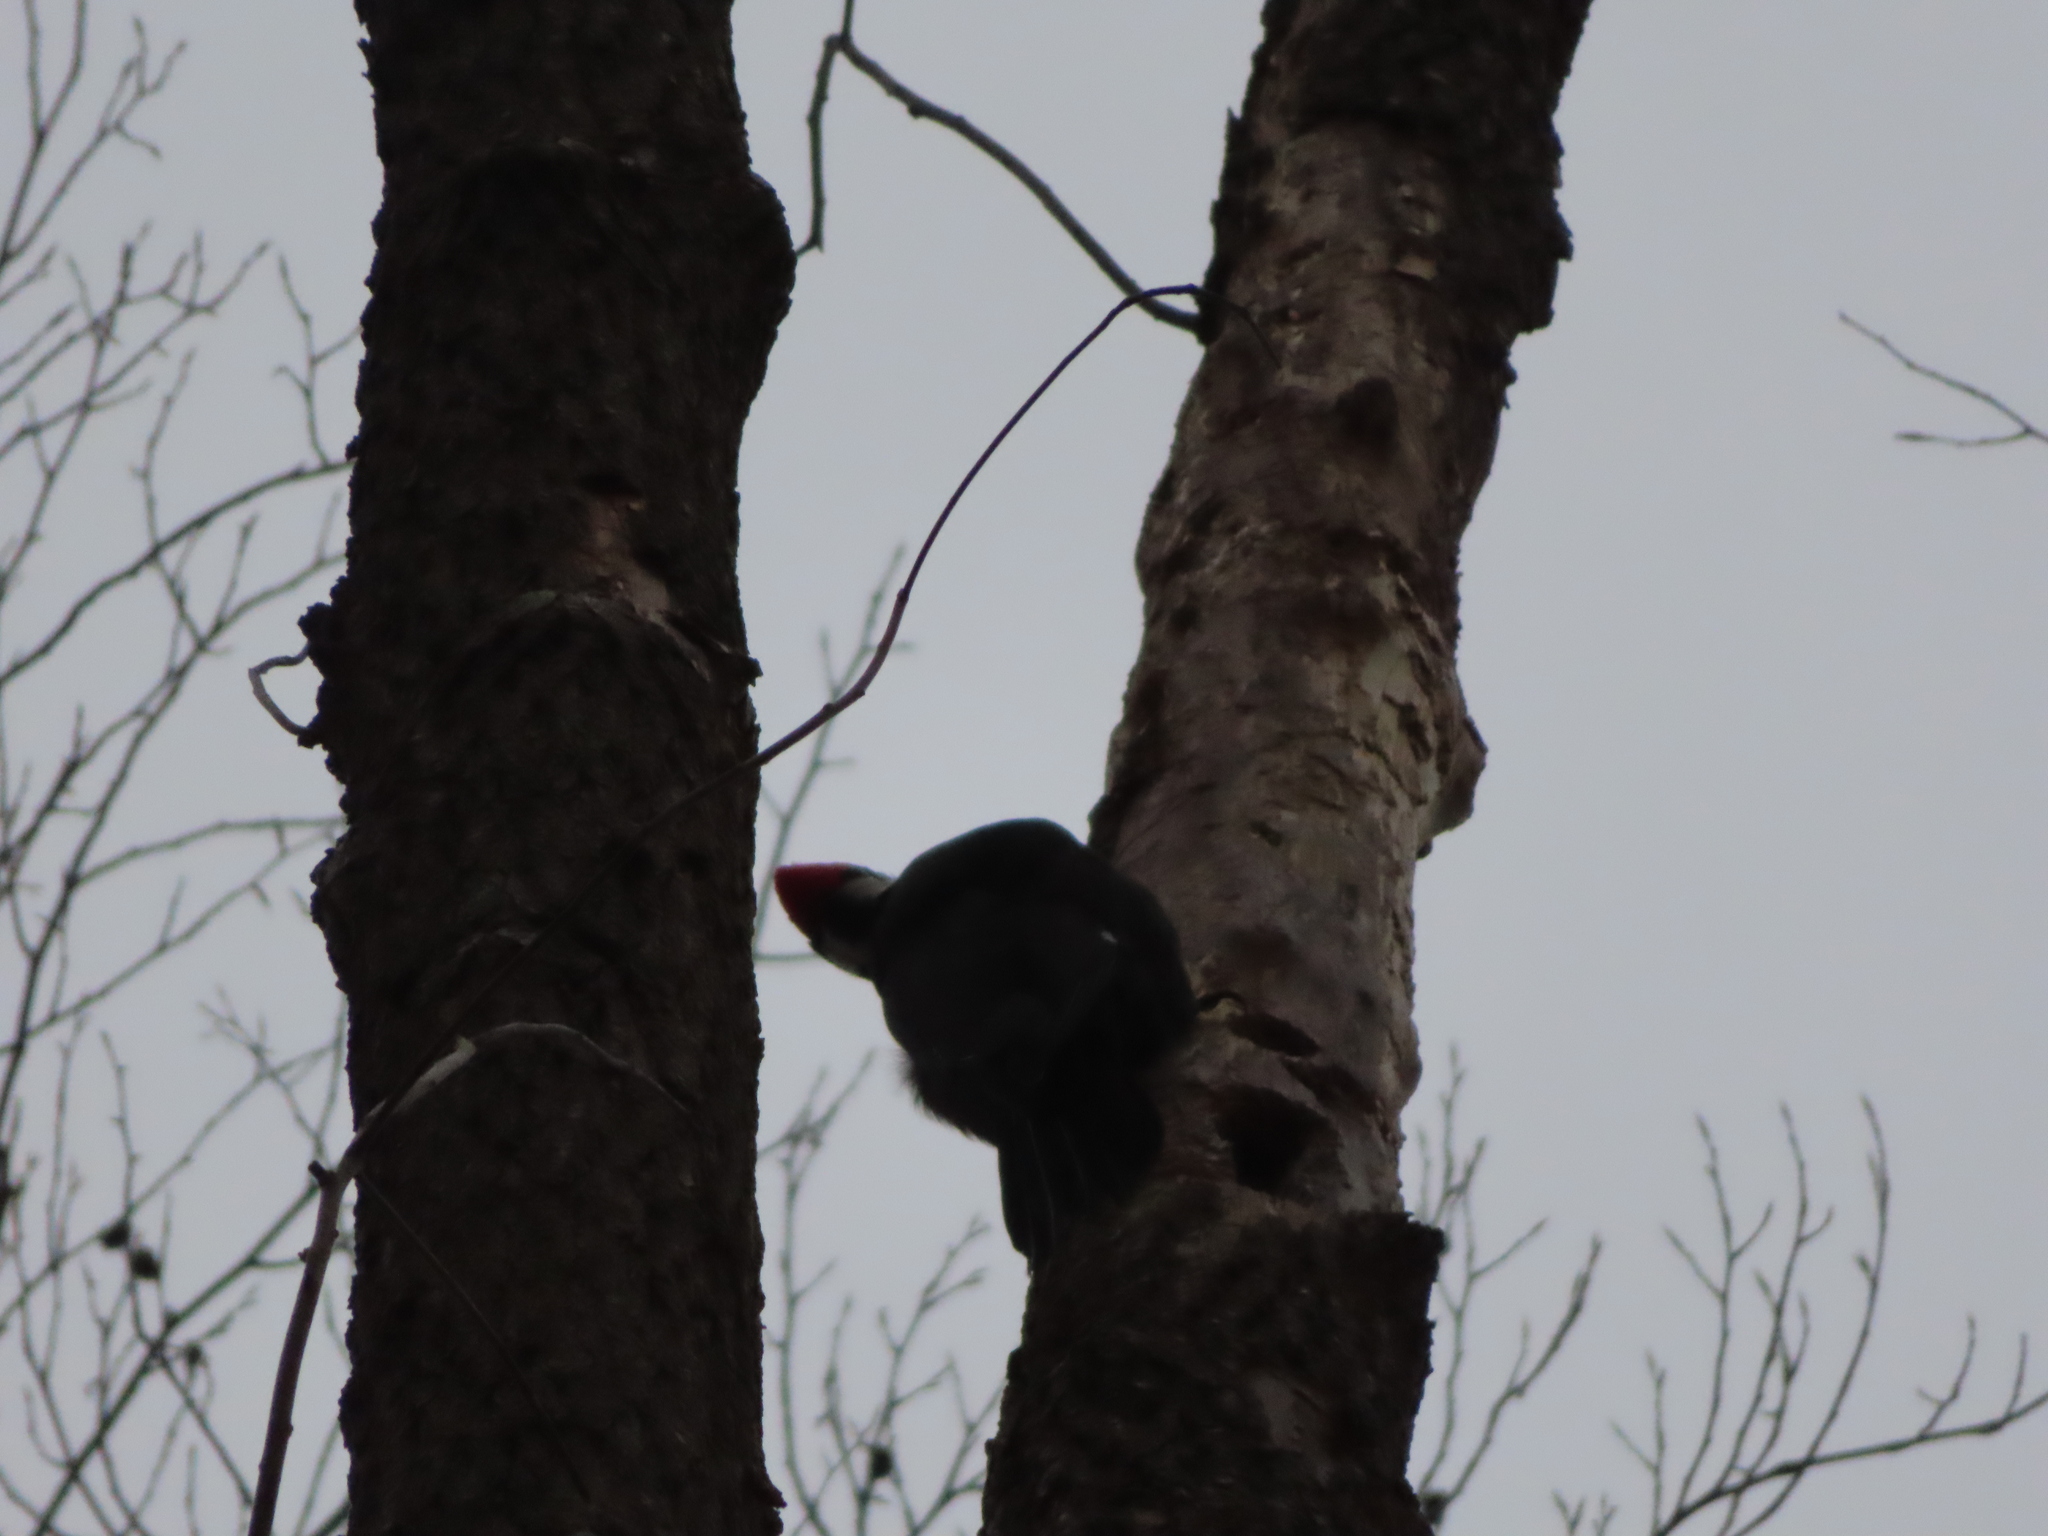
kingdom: Animalia
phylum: Chordata
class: Aves
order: Piciformes
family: Picidae
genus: Dryocopus
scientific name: Dryocopus pileatus
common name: Pileated woodpecker
